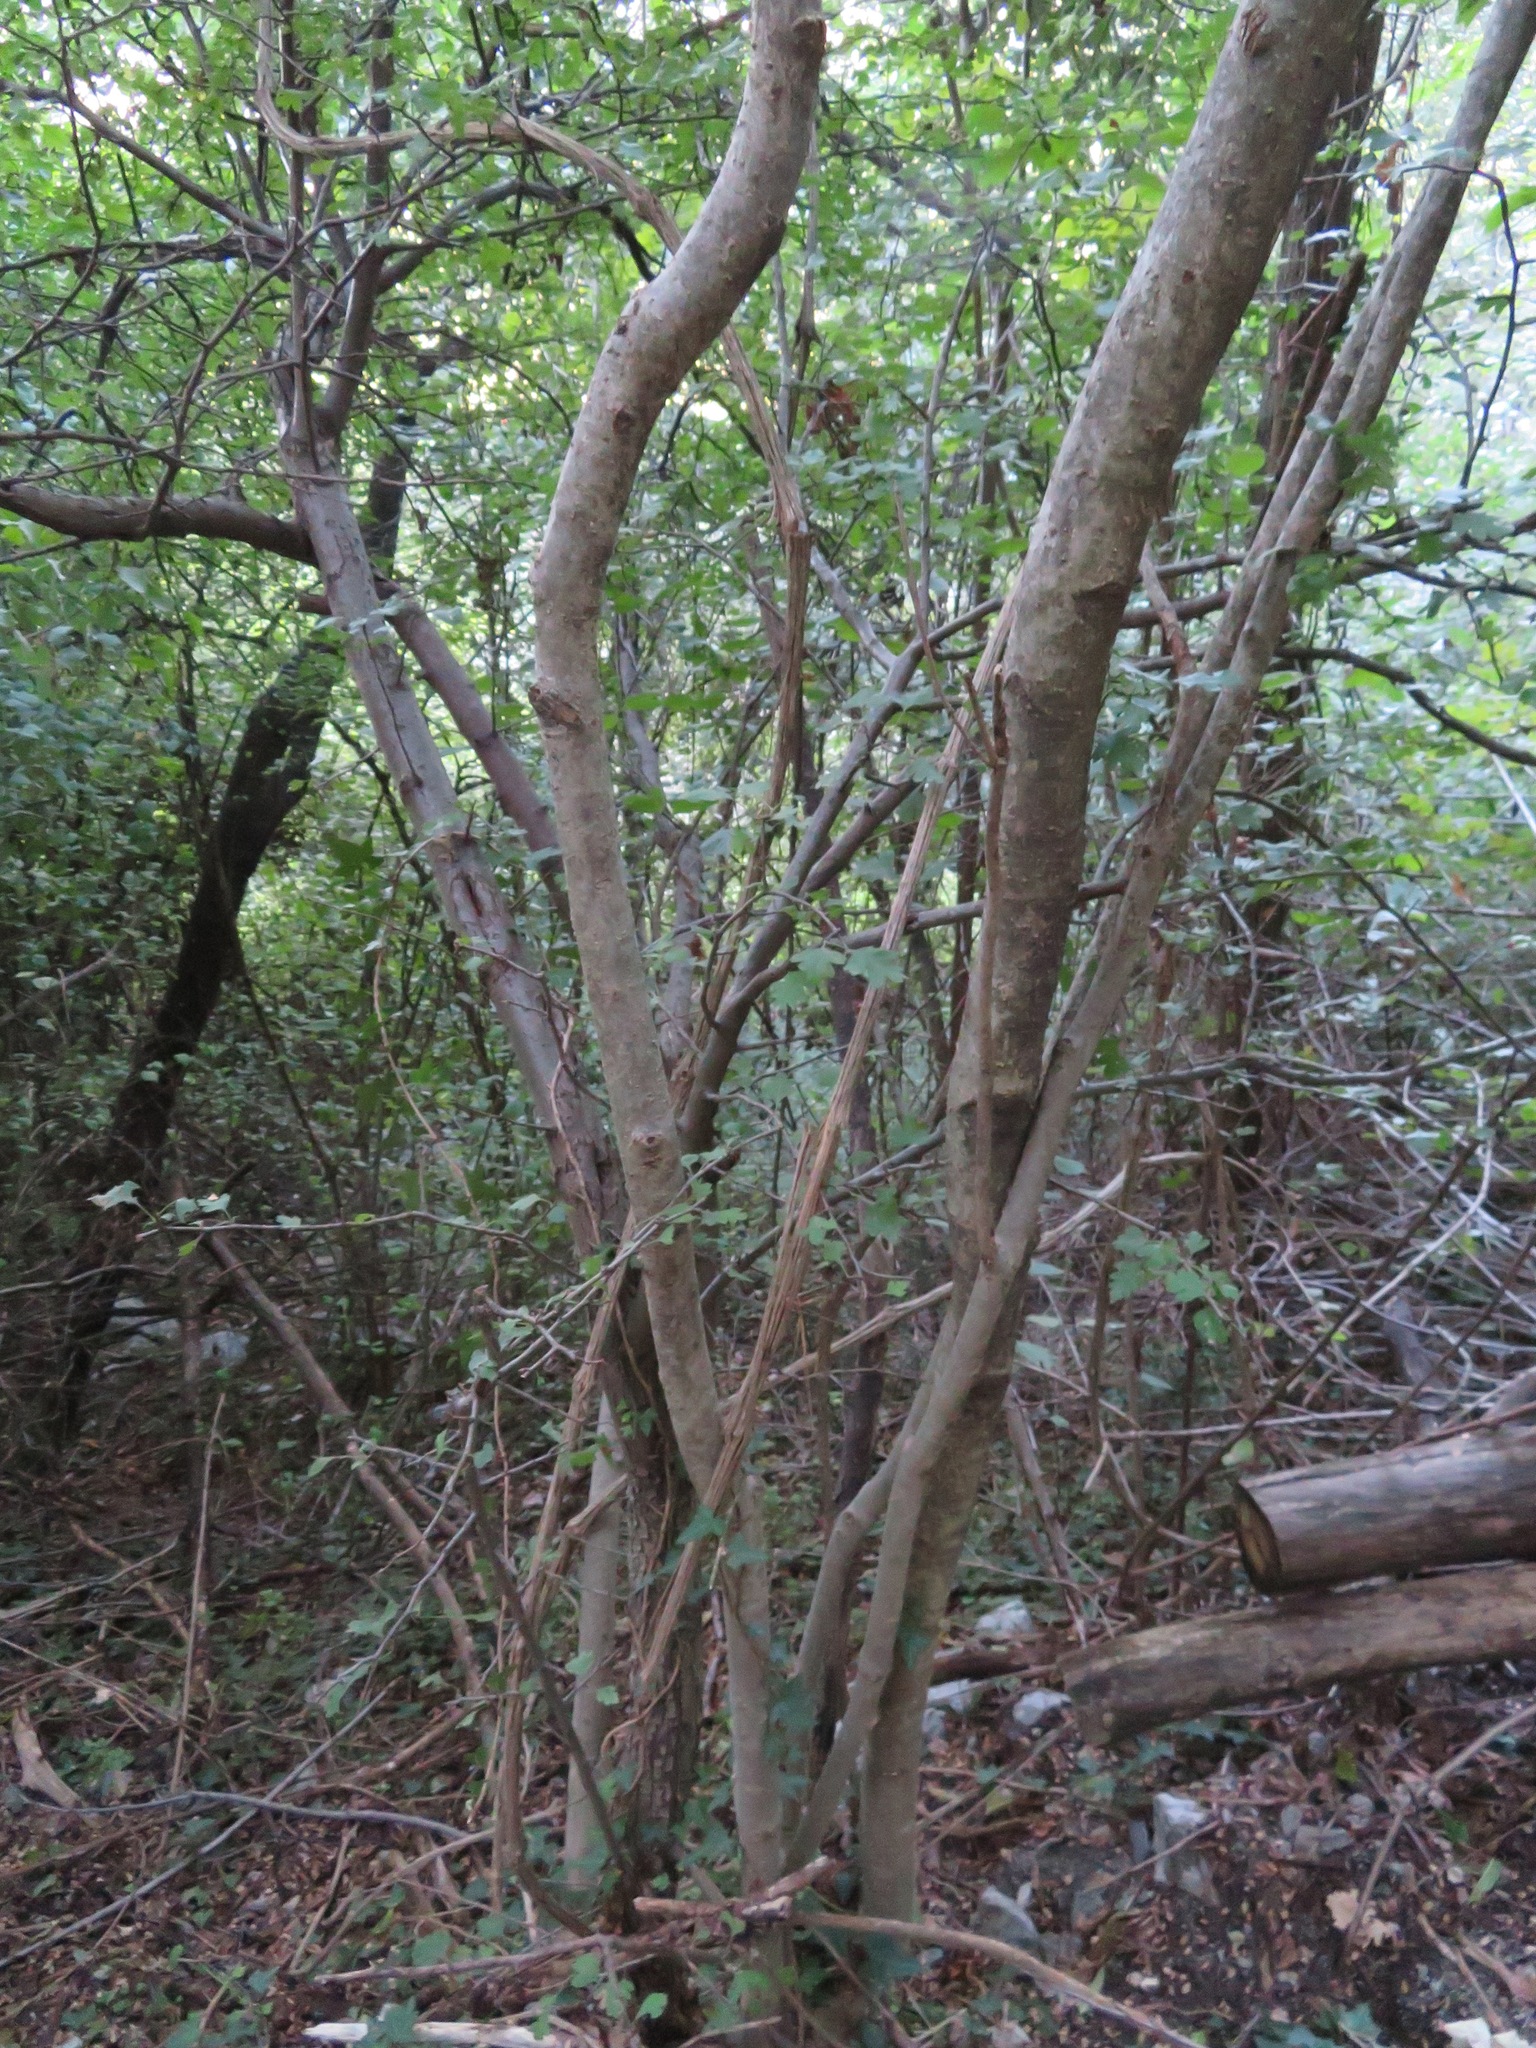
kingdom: Plantae
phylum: Tracheophyta
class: Magnoliopsida
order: Rosales
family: Rosaceae
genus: Crataegus
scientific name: Crataegus monogyna
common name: Hawthorn
